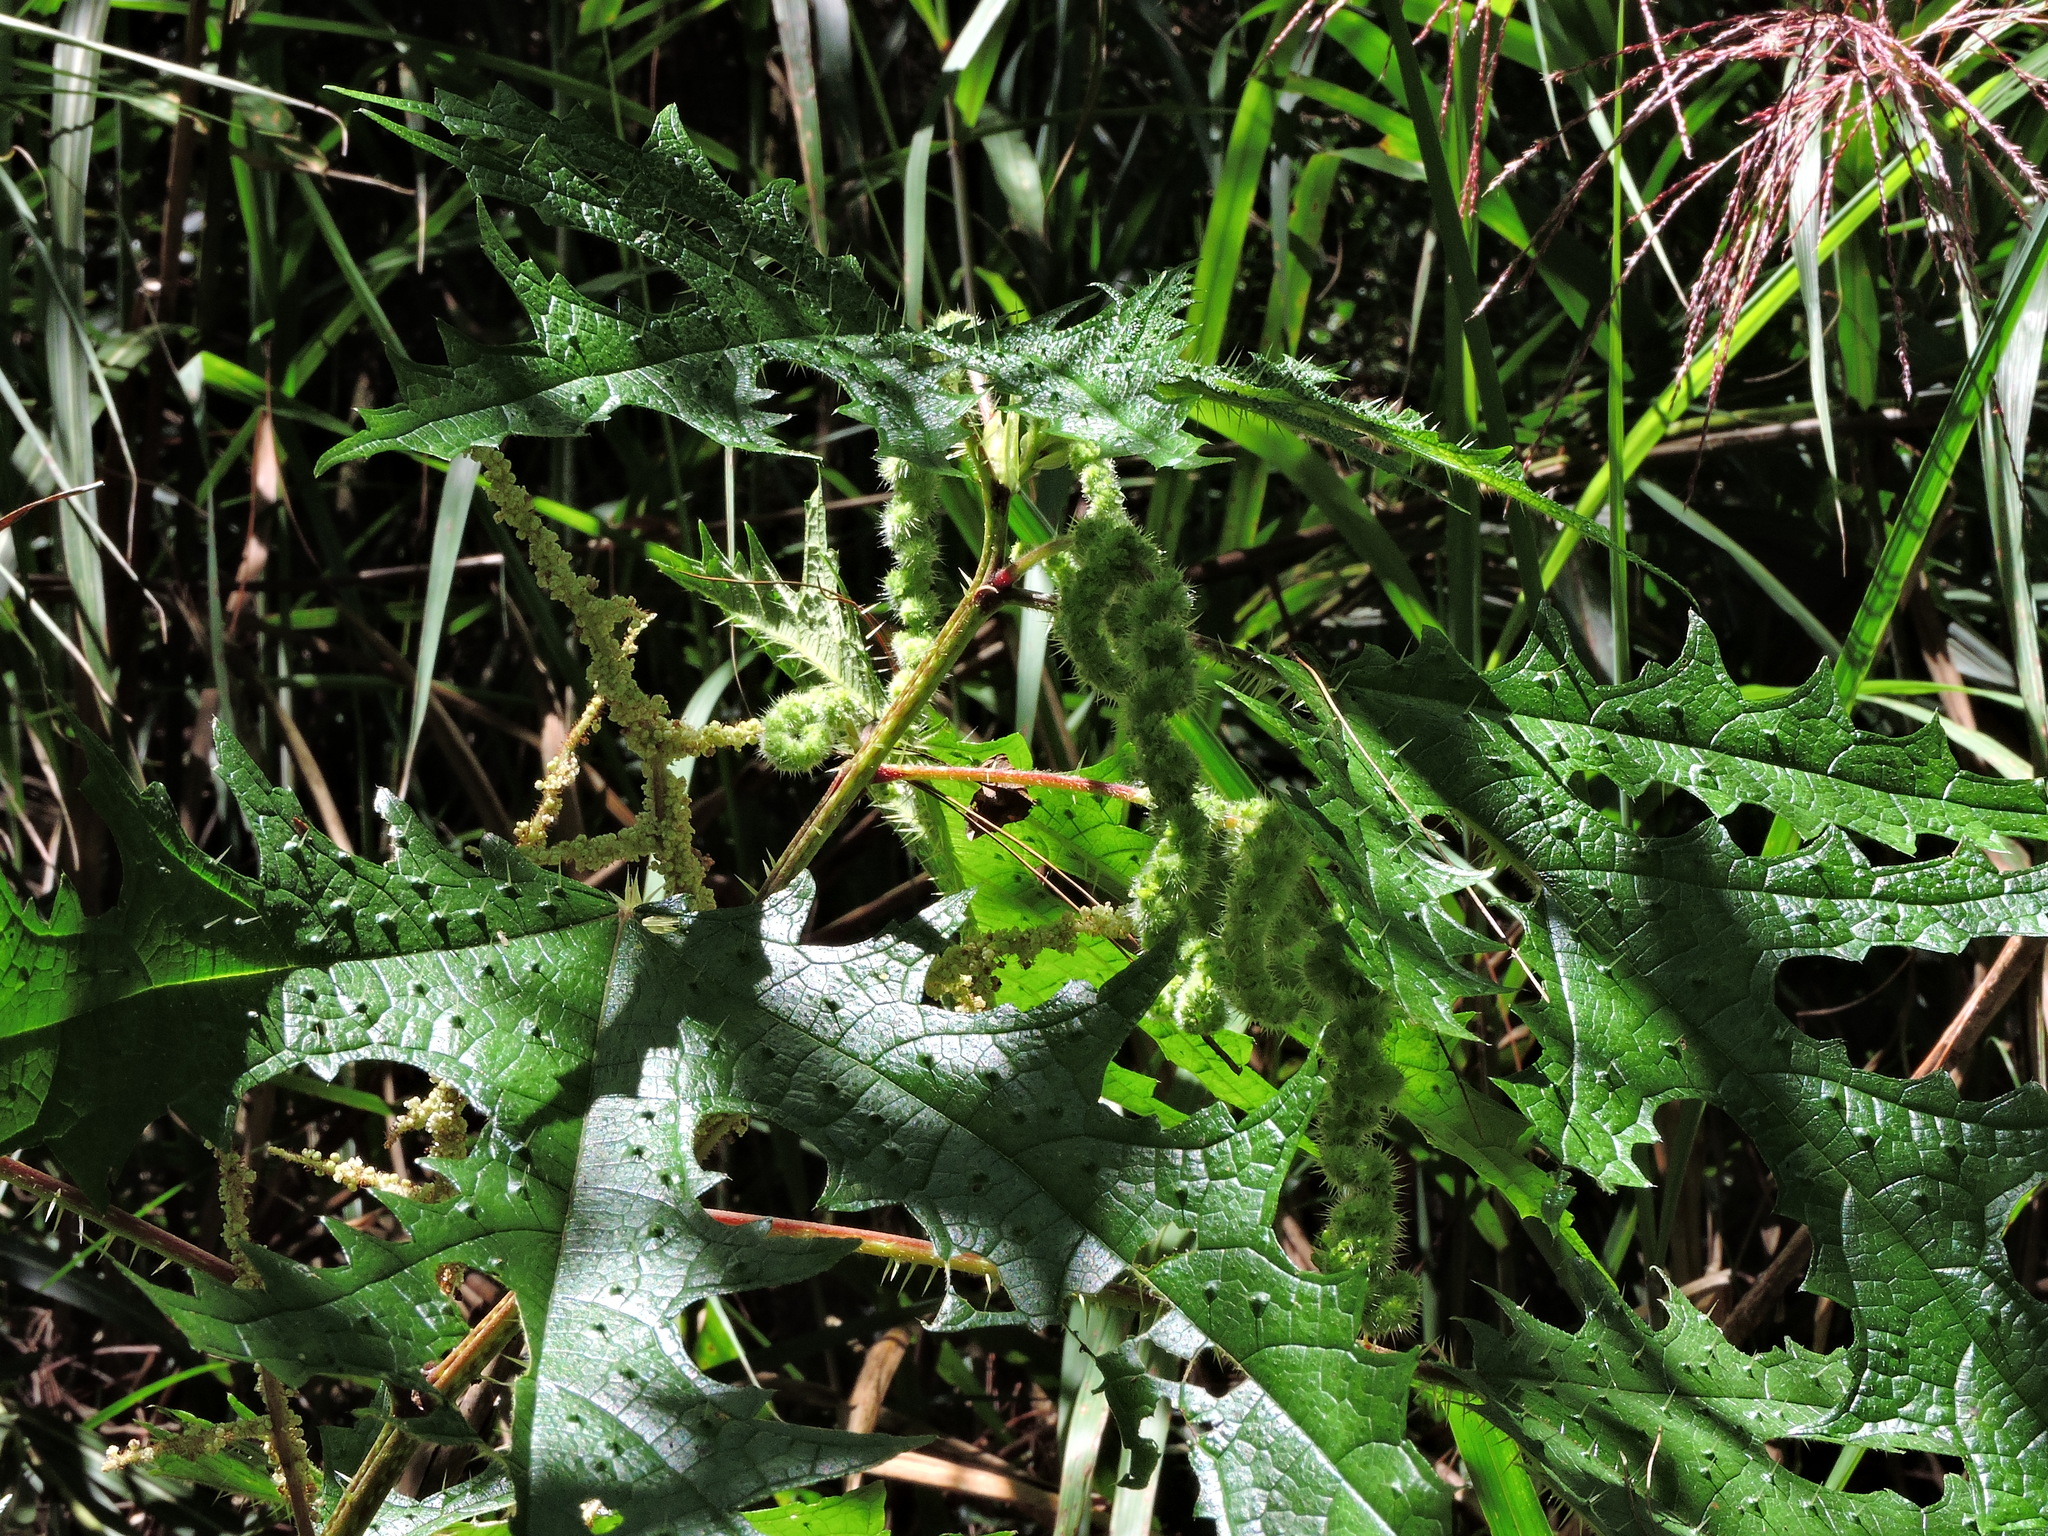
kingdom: Plantae
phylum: Tracheophyta
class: Magnoliopsida
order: Rosales
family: Urticaceae
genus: Girardinia
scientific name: Girardinia diversifolia
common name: Himalayan-nettle
